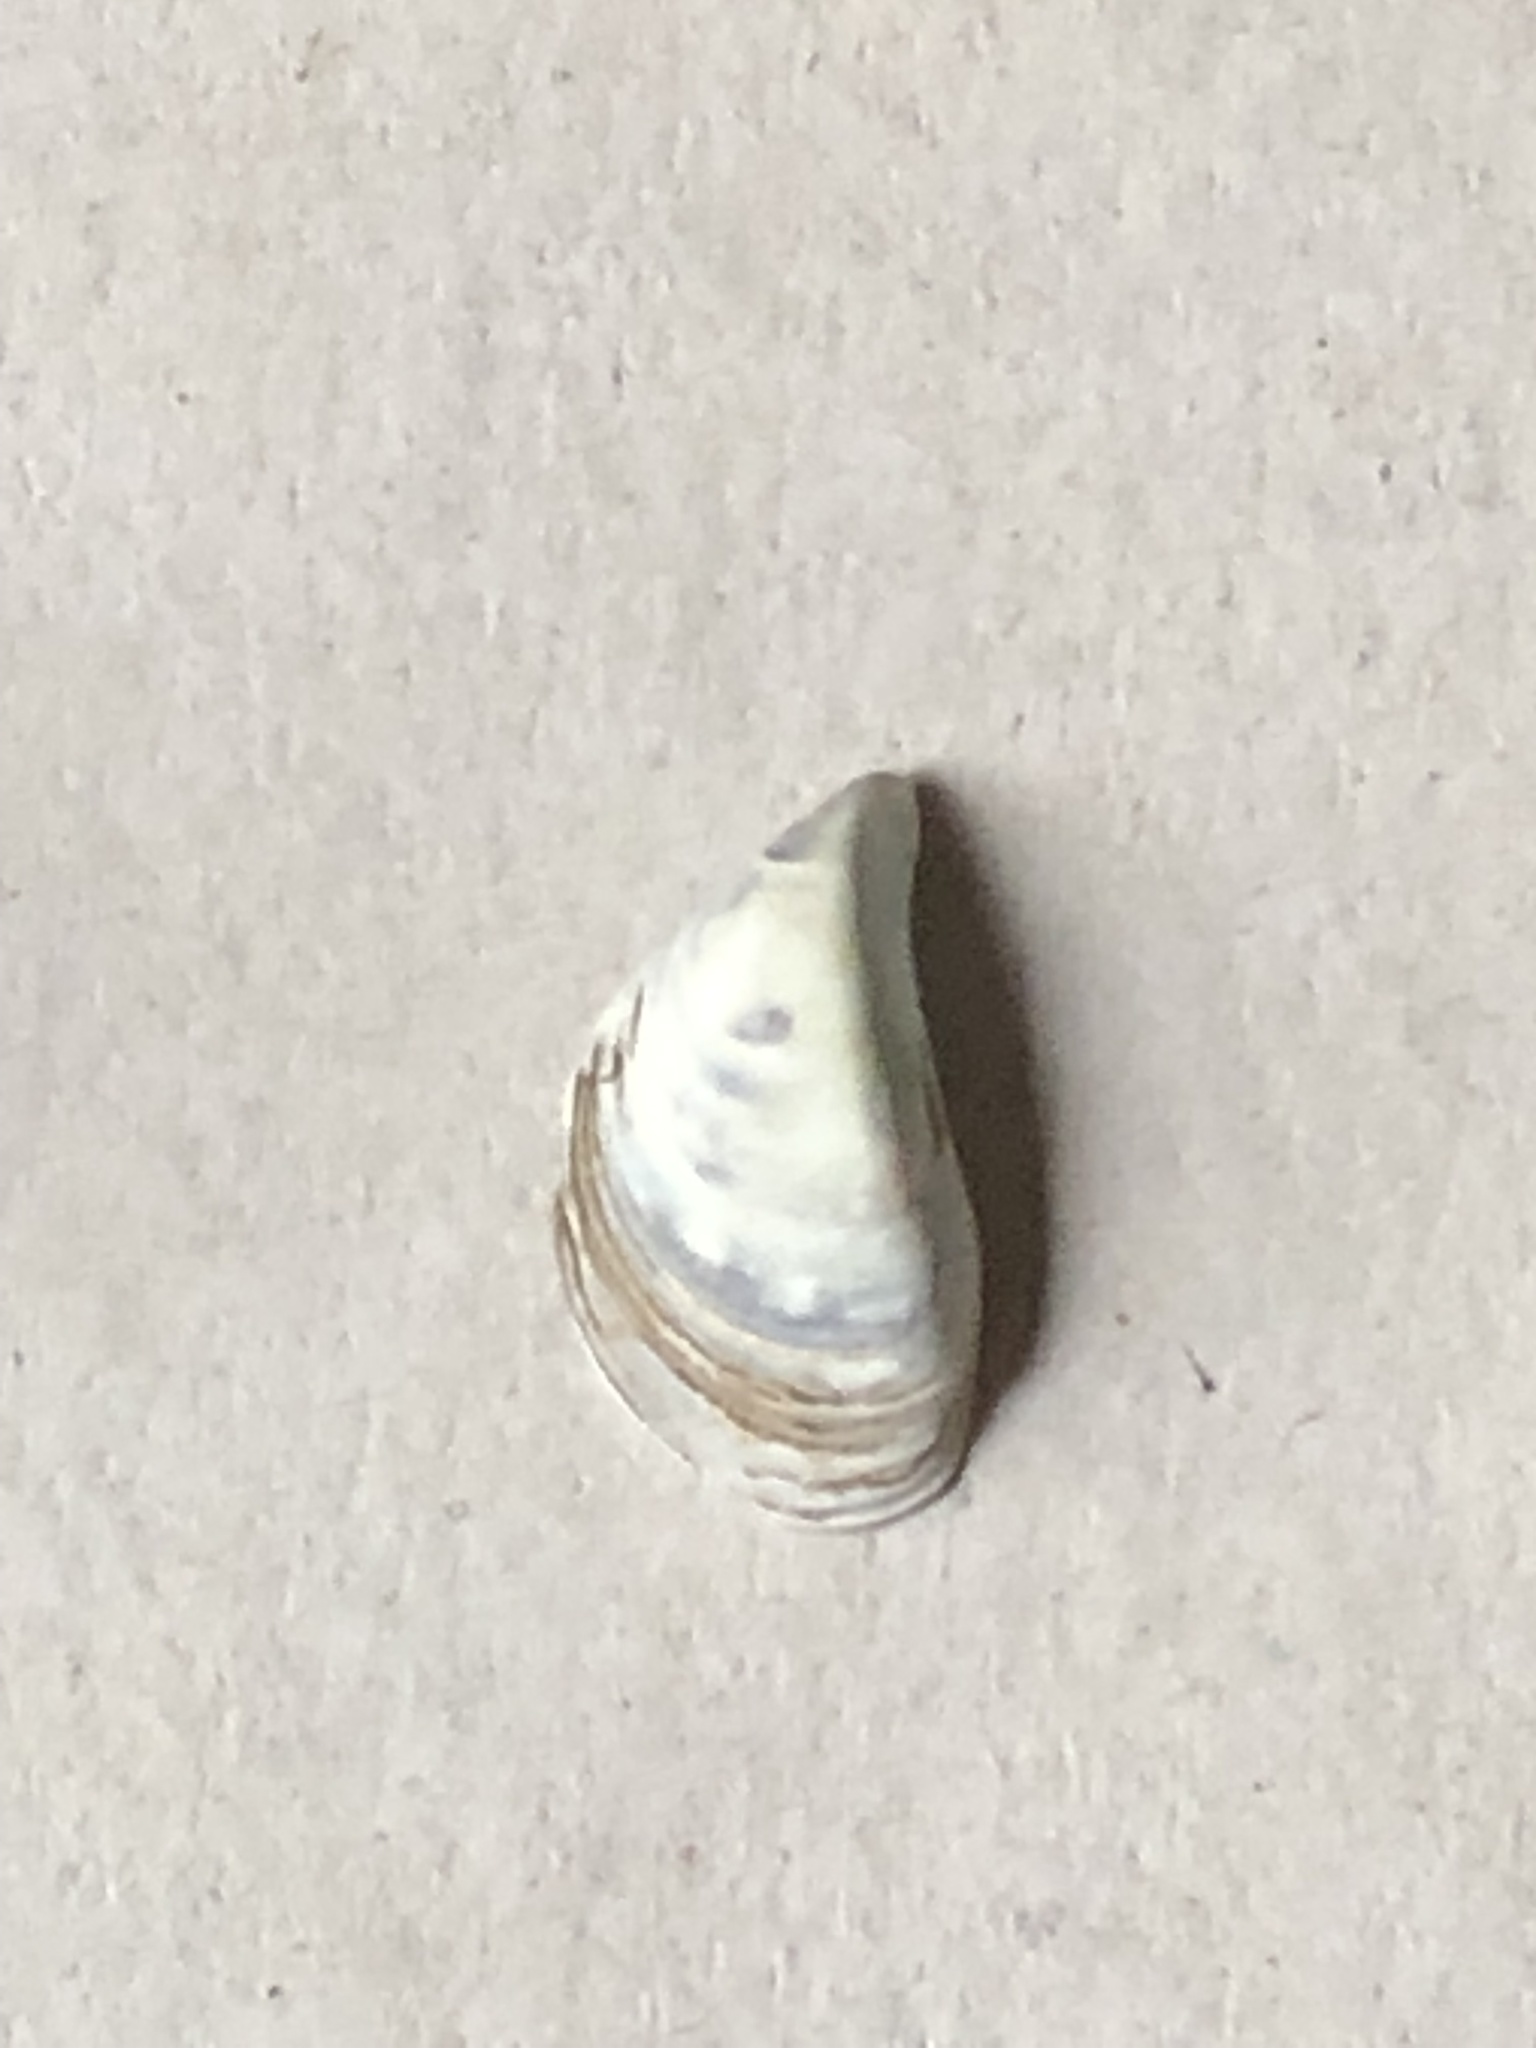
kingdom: Animalia
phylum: Mollusca
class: Bivalvia
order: Myida
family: Dreissenidae
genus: Dreissena
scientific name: Dreissena polymorpha
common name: Zebra mussel
